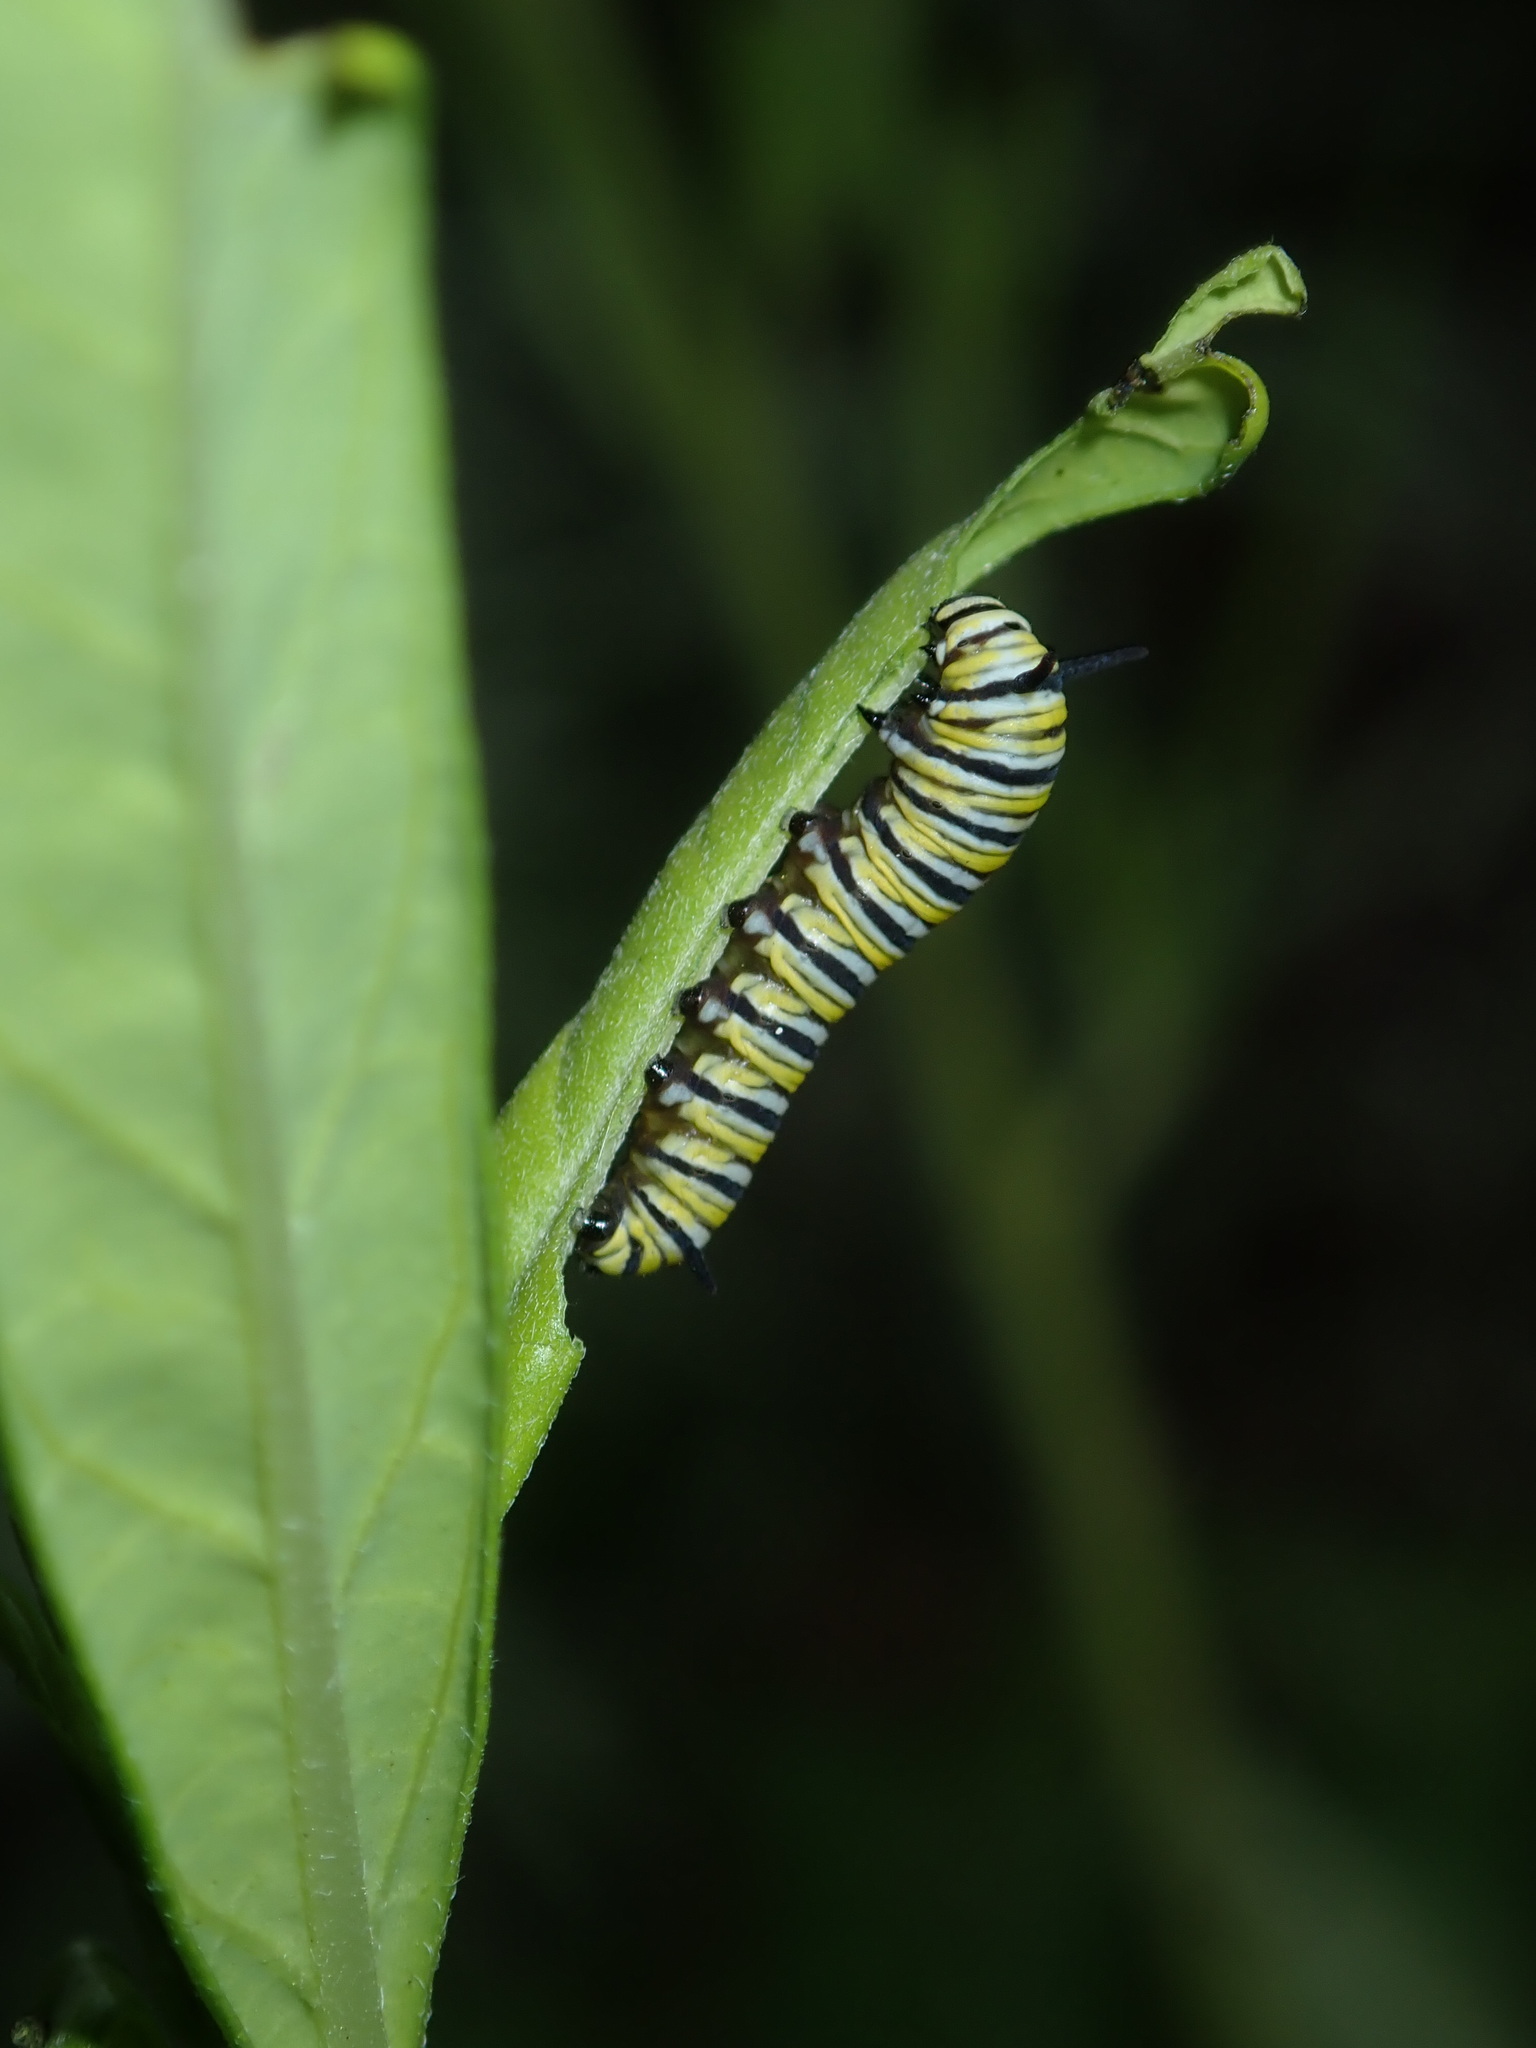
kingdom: Animalia
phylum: Arthropoda
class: Insecta
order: Lepidoptera
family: Nymphalidae
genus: Danaus
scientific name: Danaus plexippus
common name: Monarch
